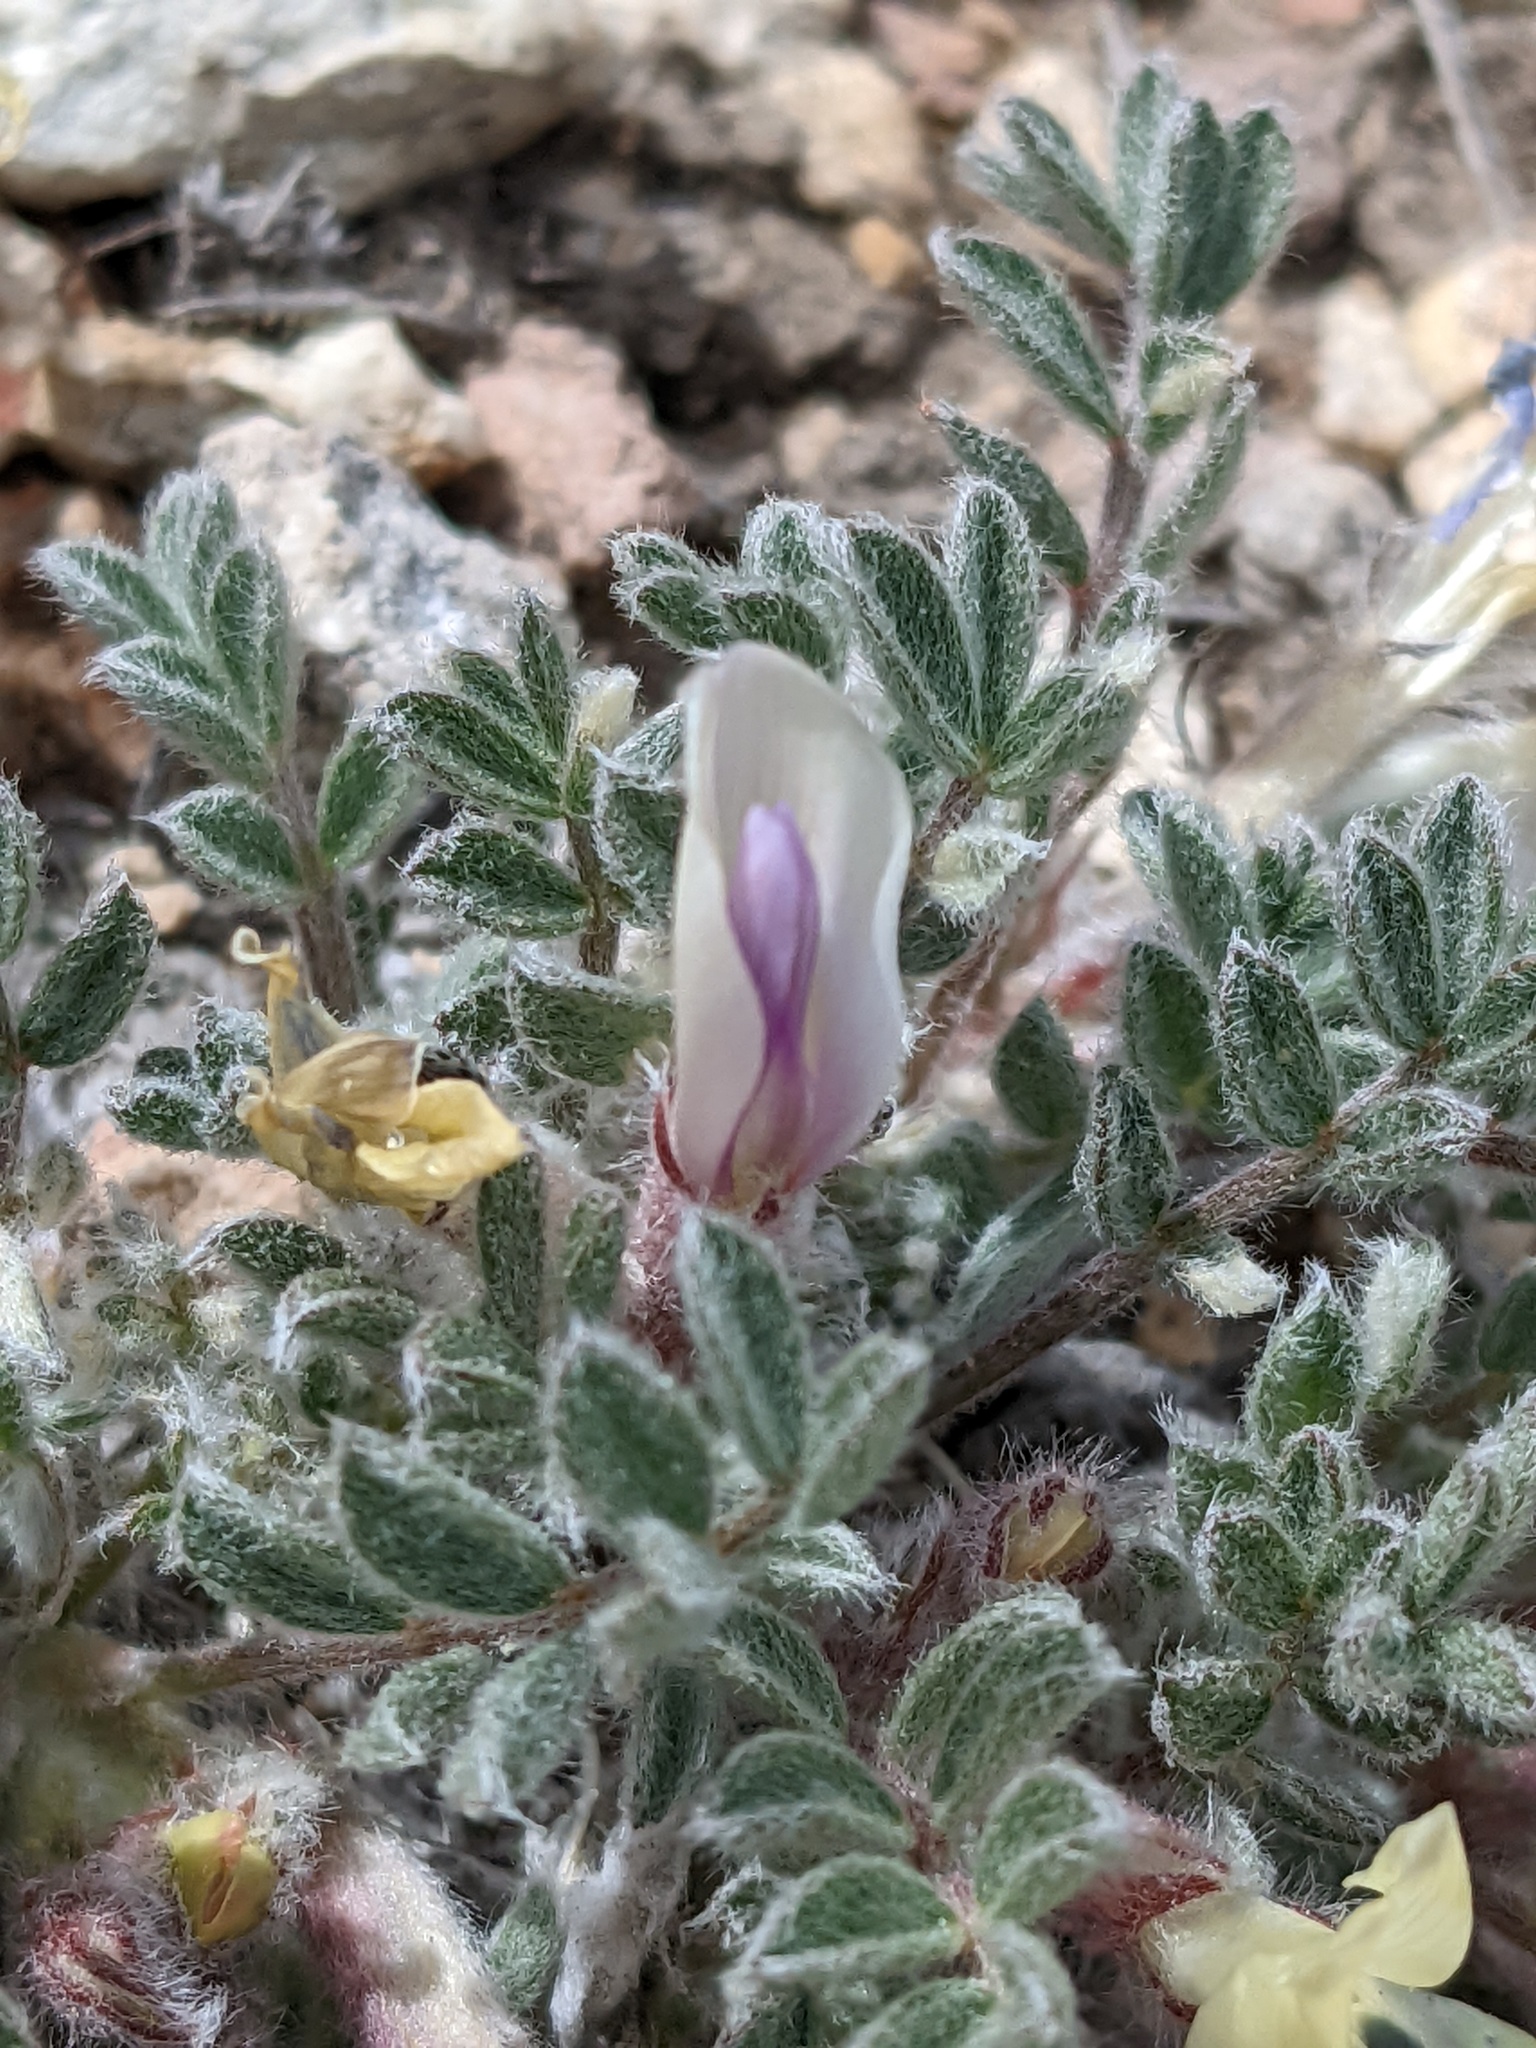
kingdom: Plantae
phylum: Tracheophyta
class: Magnoliopsida
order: Fabales
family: Fabaceae
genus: Astragalus
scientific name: Astragalus purshii
